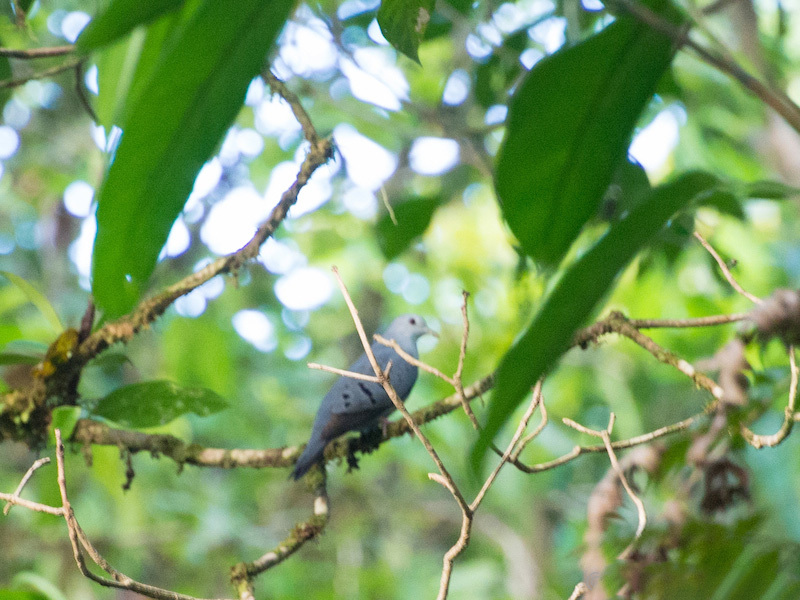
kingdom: Animalia
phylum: Chordata
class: Aves
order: Columbiformes
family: Columbidae
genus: Claravis
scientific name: Claravis pretiosa
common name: Blue ground-dove
